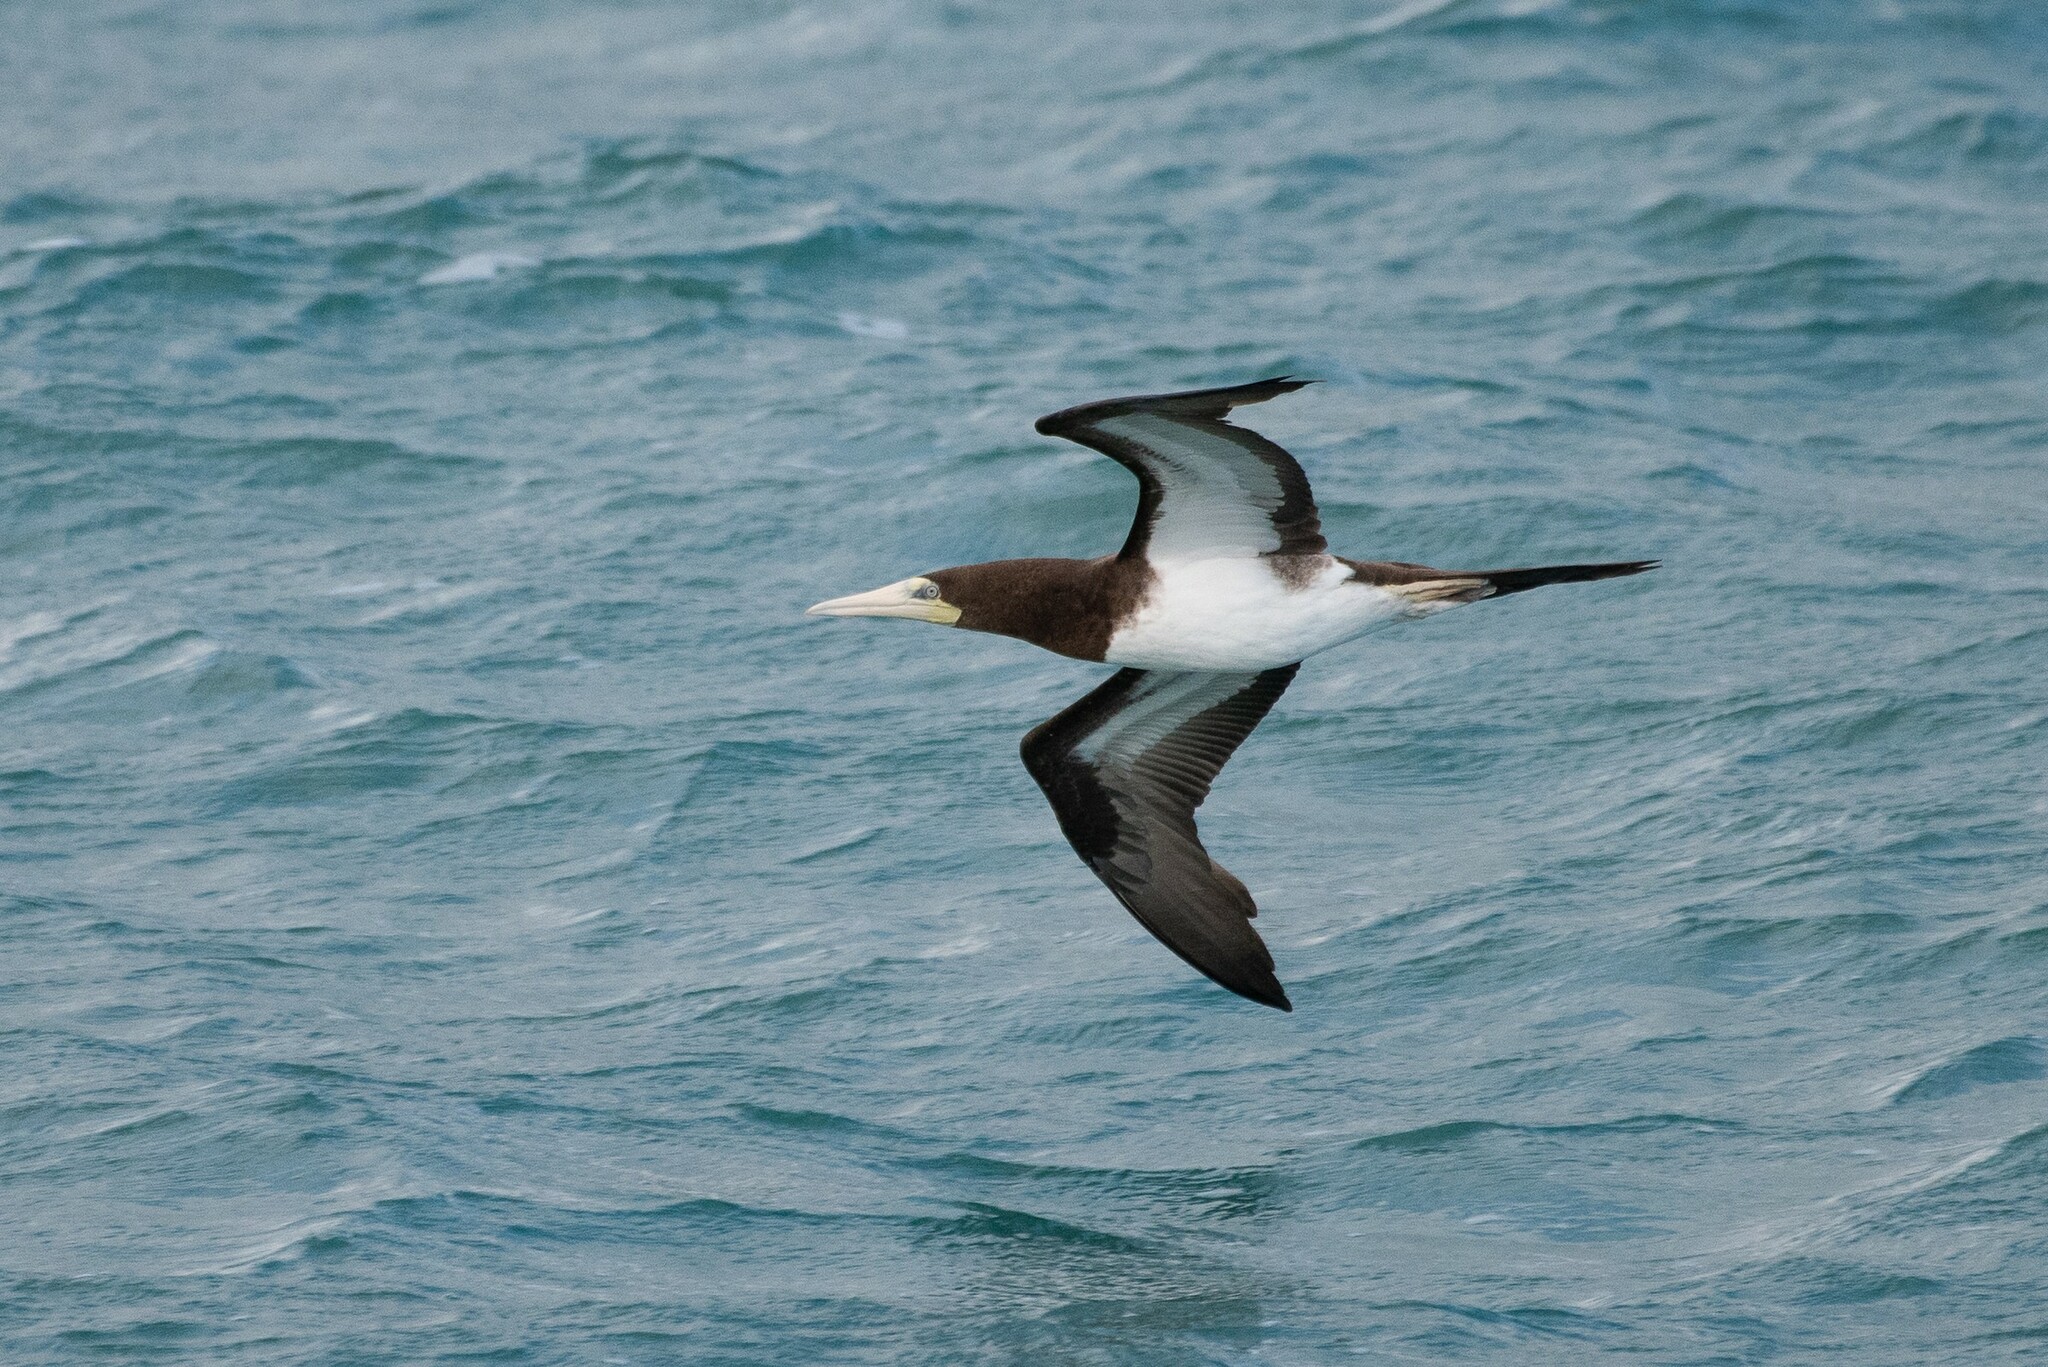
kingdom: Animalia
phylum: Chordata
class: Aves
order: Suliformes
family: Sulidae
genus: Sula
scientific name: Sula leucogaster
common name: Brown booby
